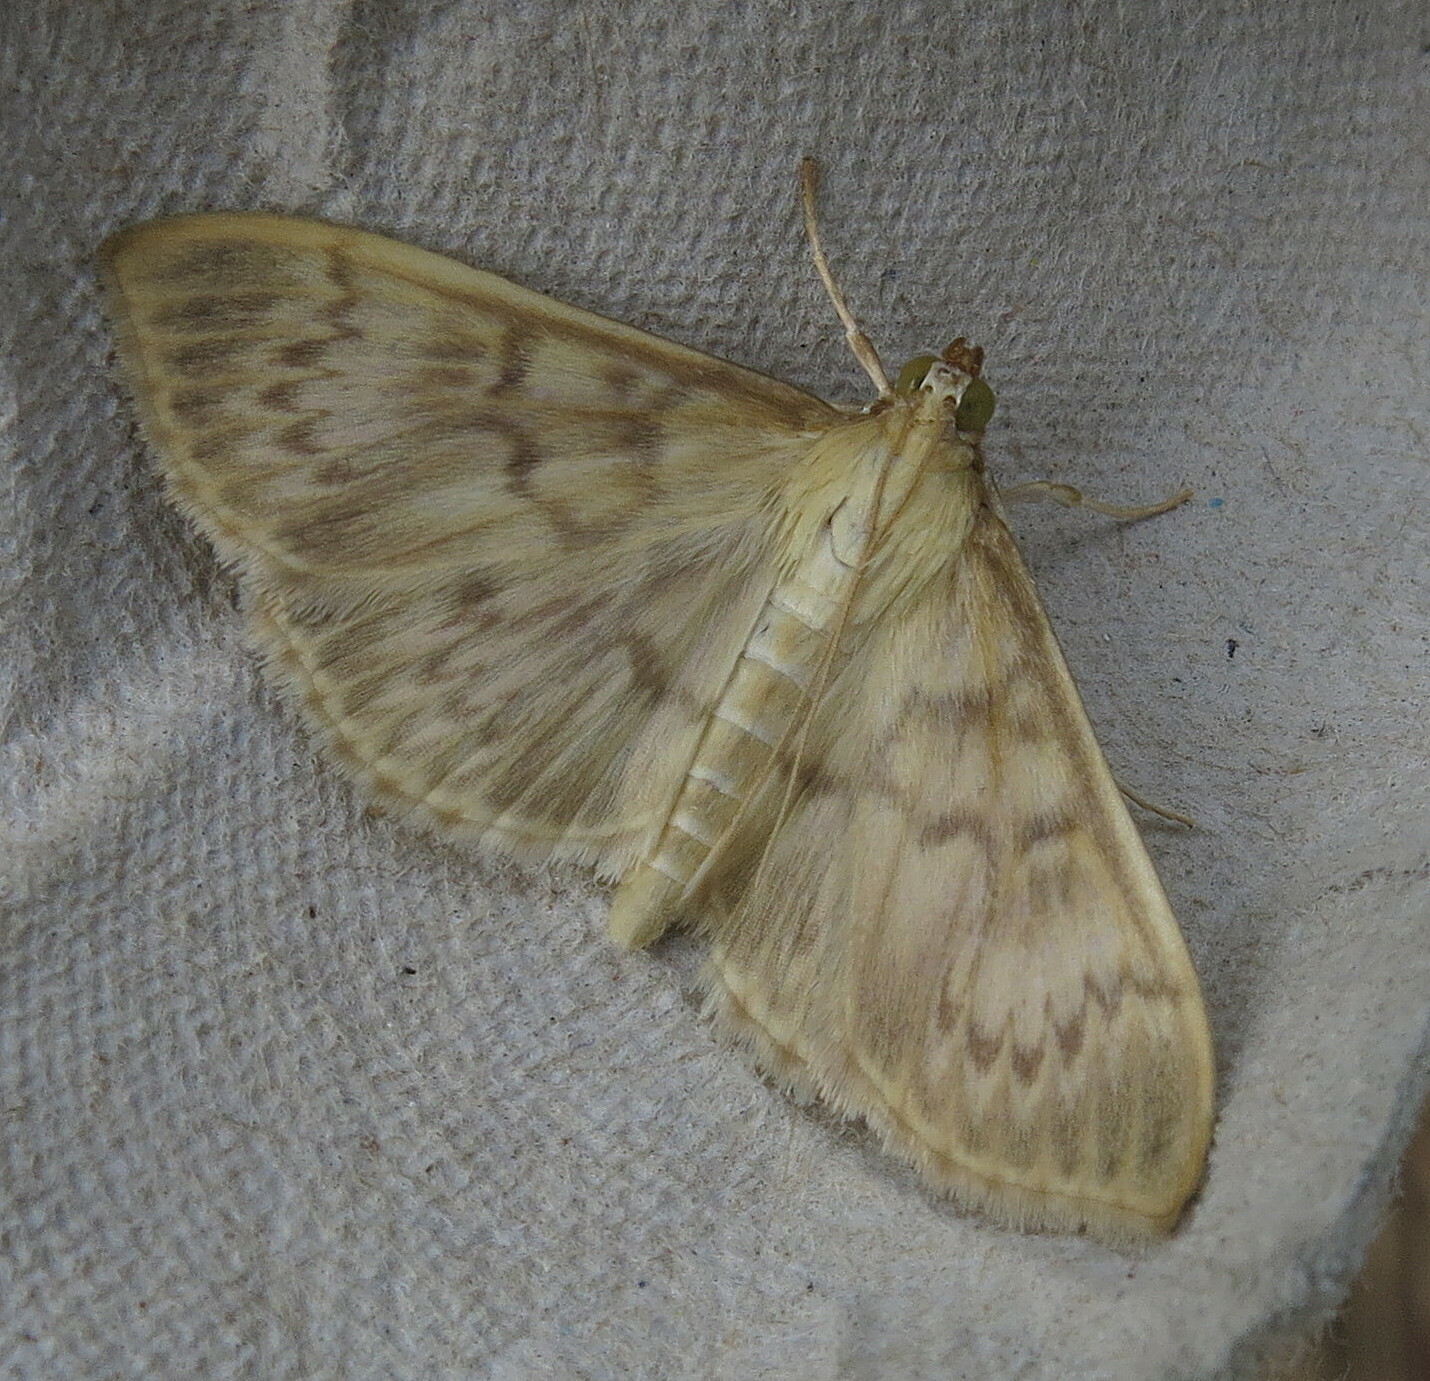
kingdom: Animalia
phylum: Arthropoda
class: Insecta
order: Lepidoptera
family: Crambidae
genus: Patania
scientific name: Patania ruralis
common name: Mother of pearl
